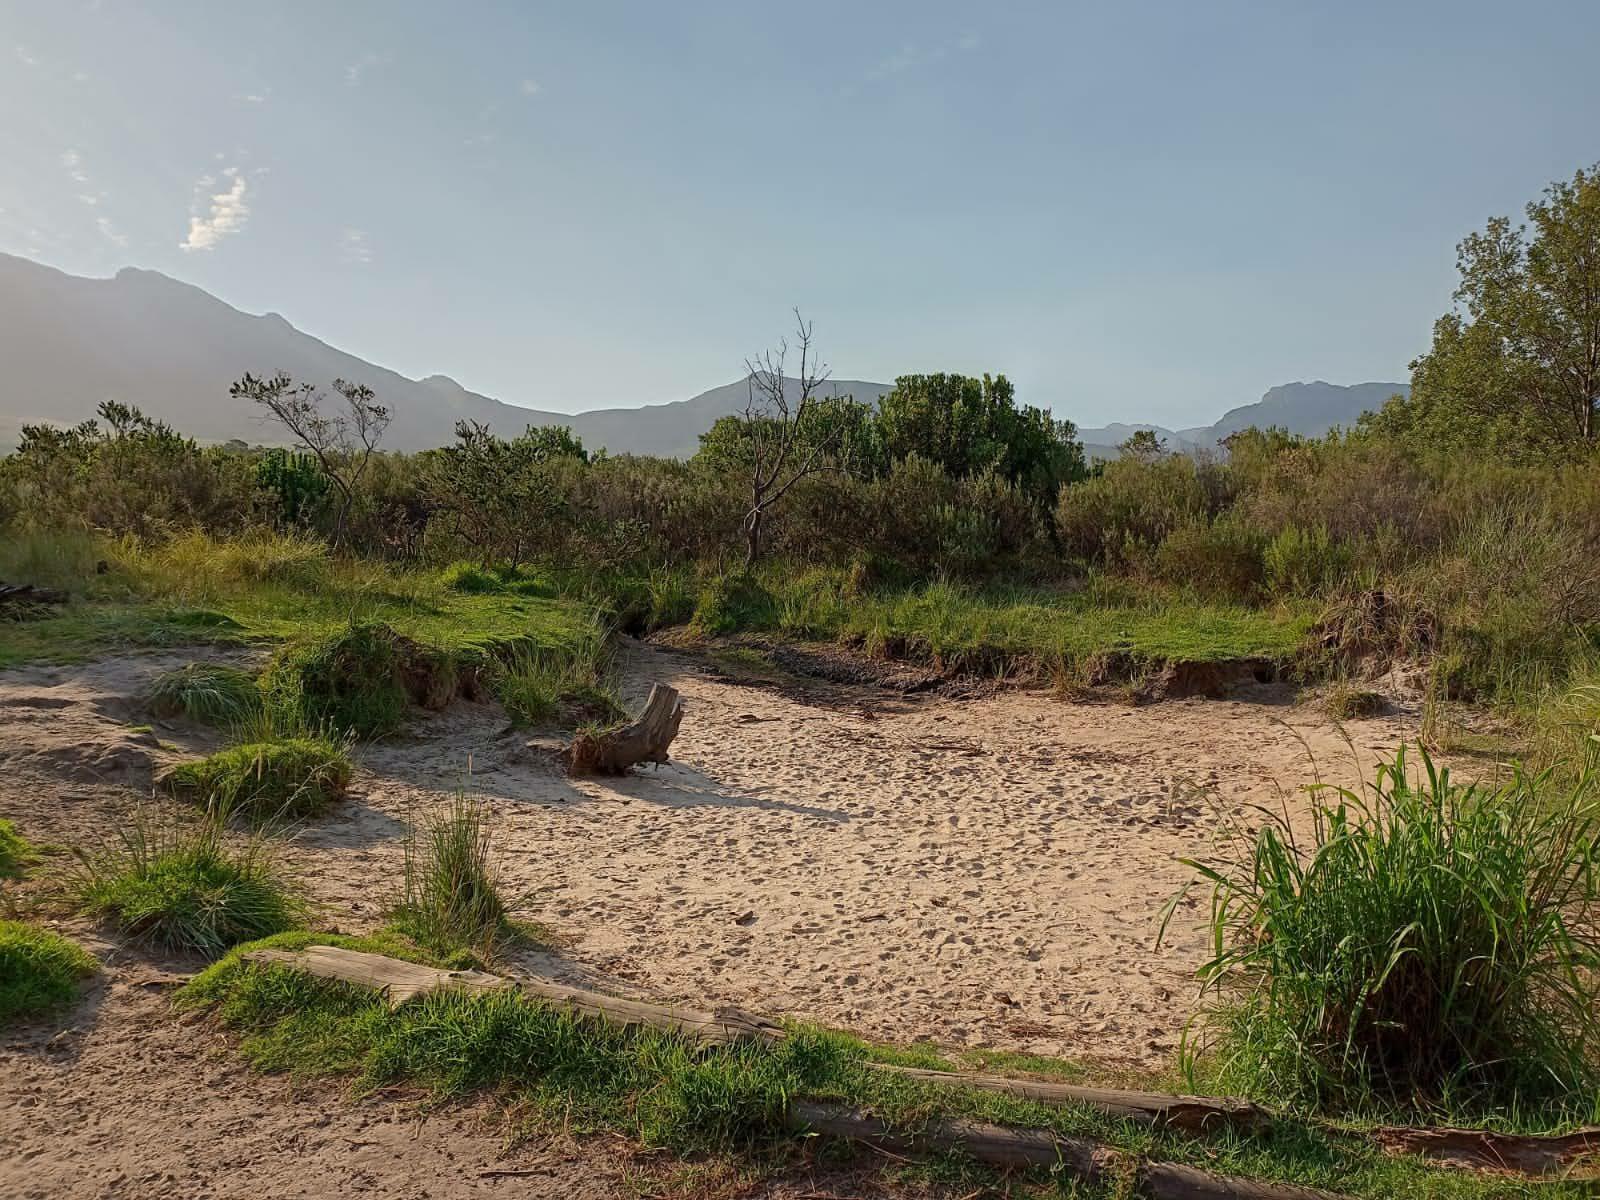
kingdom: Plantae
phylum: Tracheophyta
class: Liliopsida
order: Poales
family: Poaceae
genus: Cenchrus
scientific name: Cenchrus clandestinus
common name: Kikuyugrass
